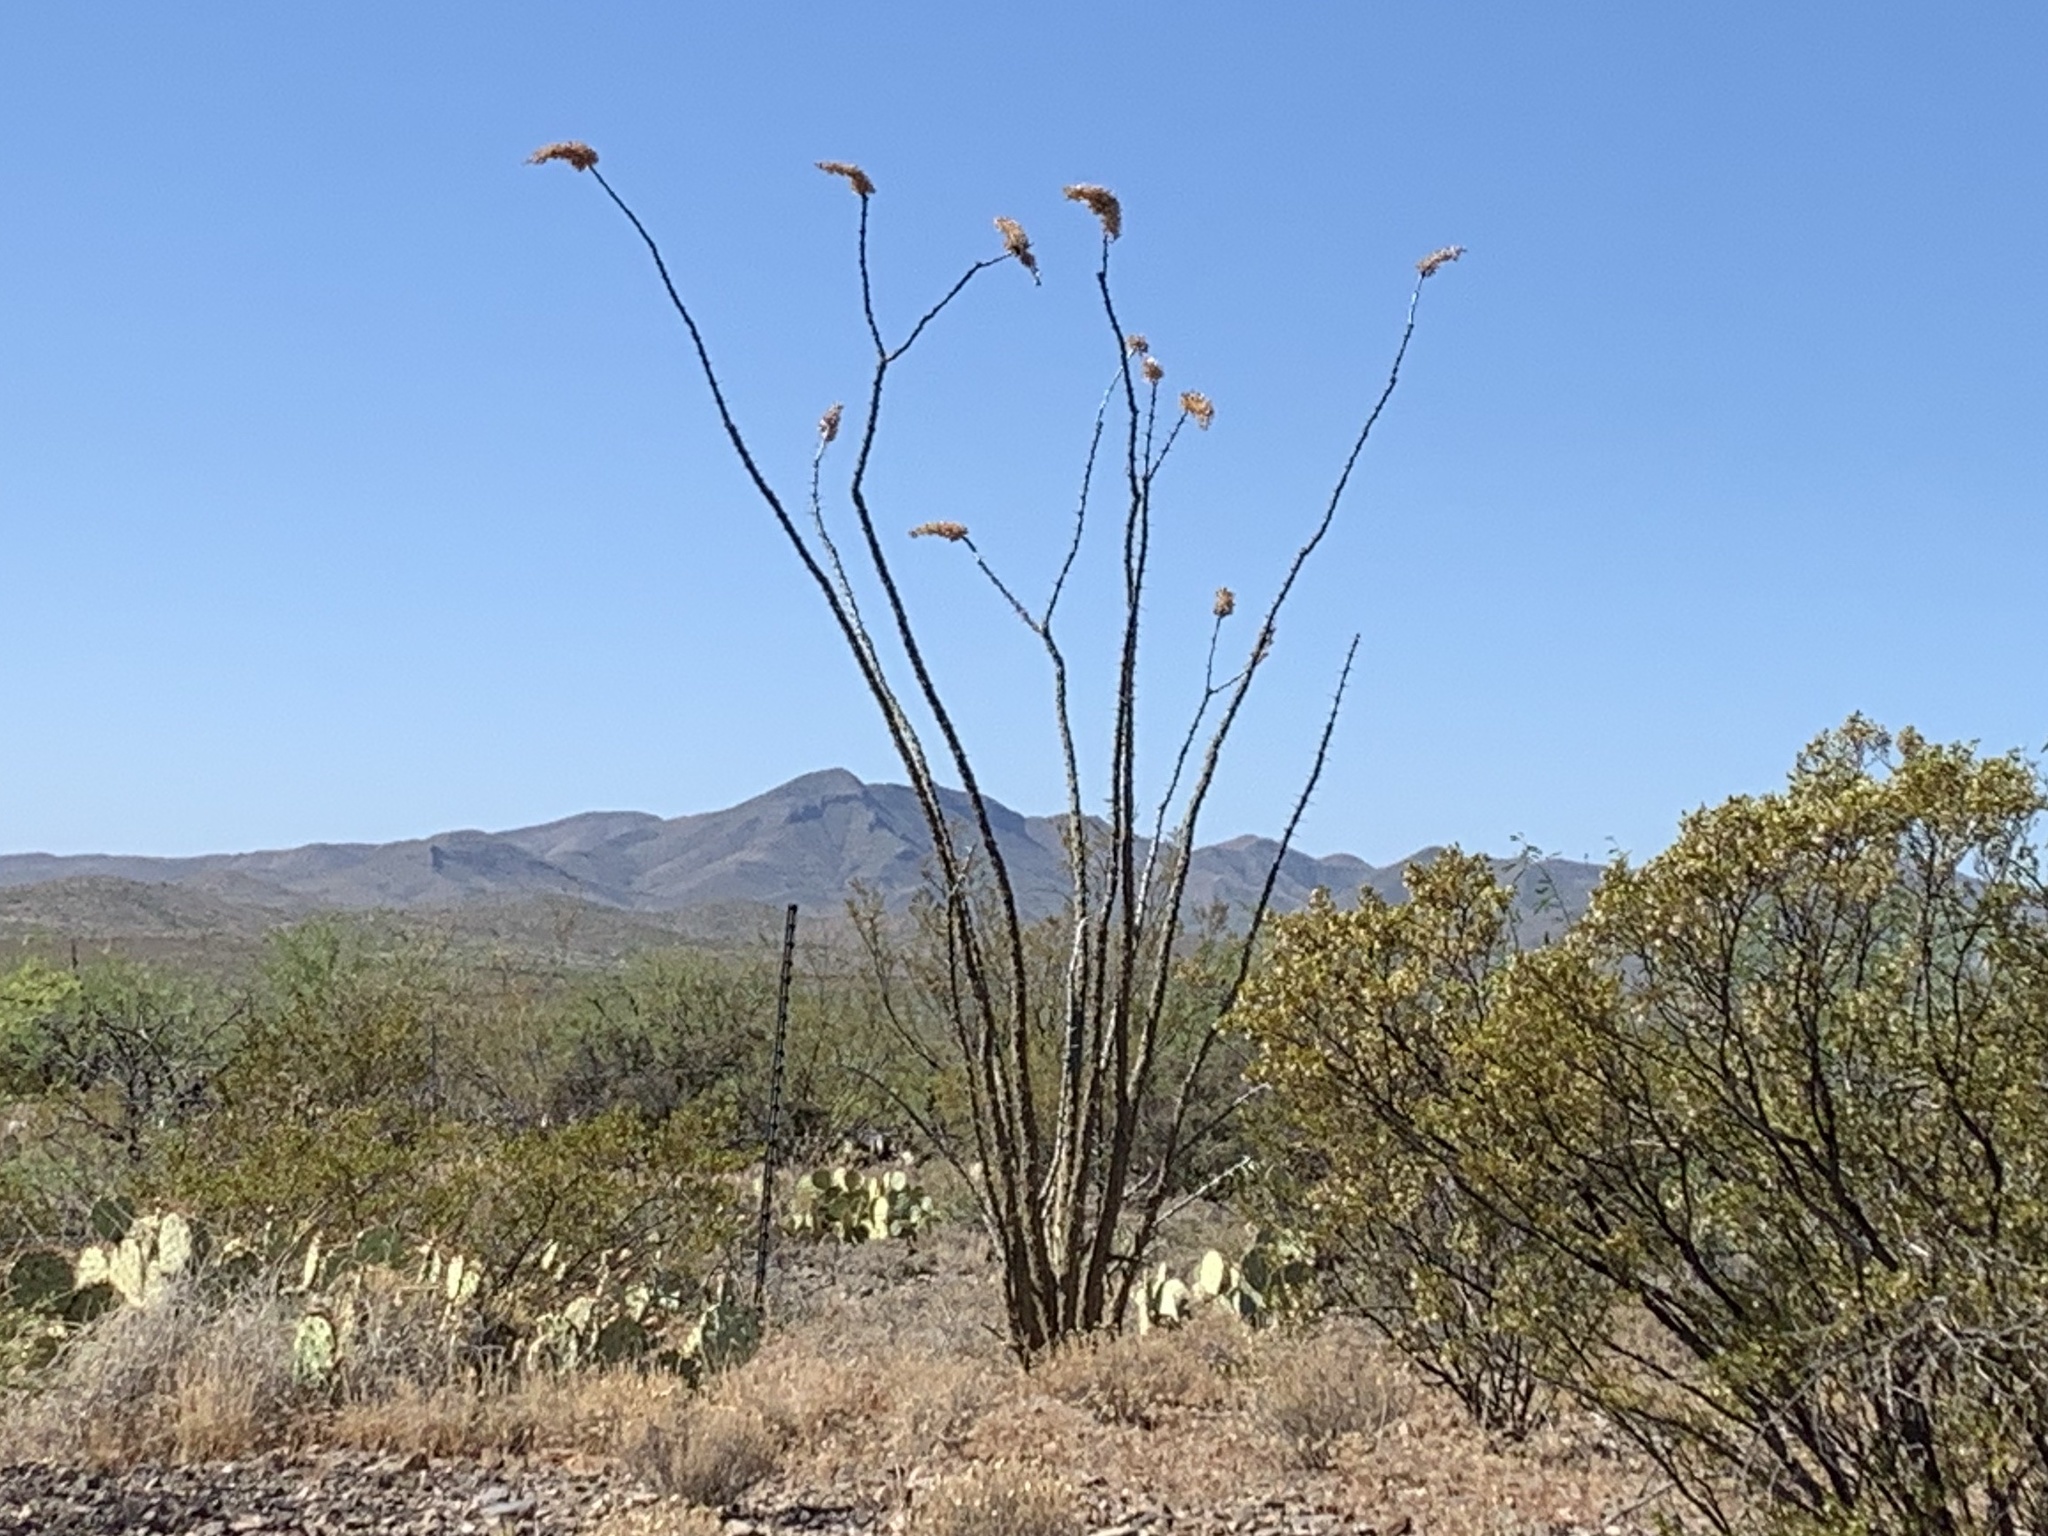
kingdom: Plantae
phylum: Tracheophyta
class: Magnoliopsida
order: Ericales
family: Fouquieriaceae
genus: Fouquieria
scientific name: Fouquieria splendens
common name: Vine-cactus
